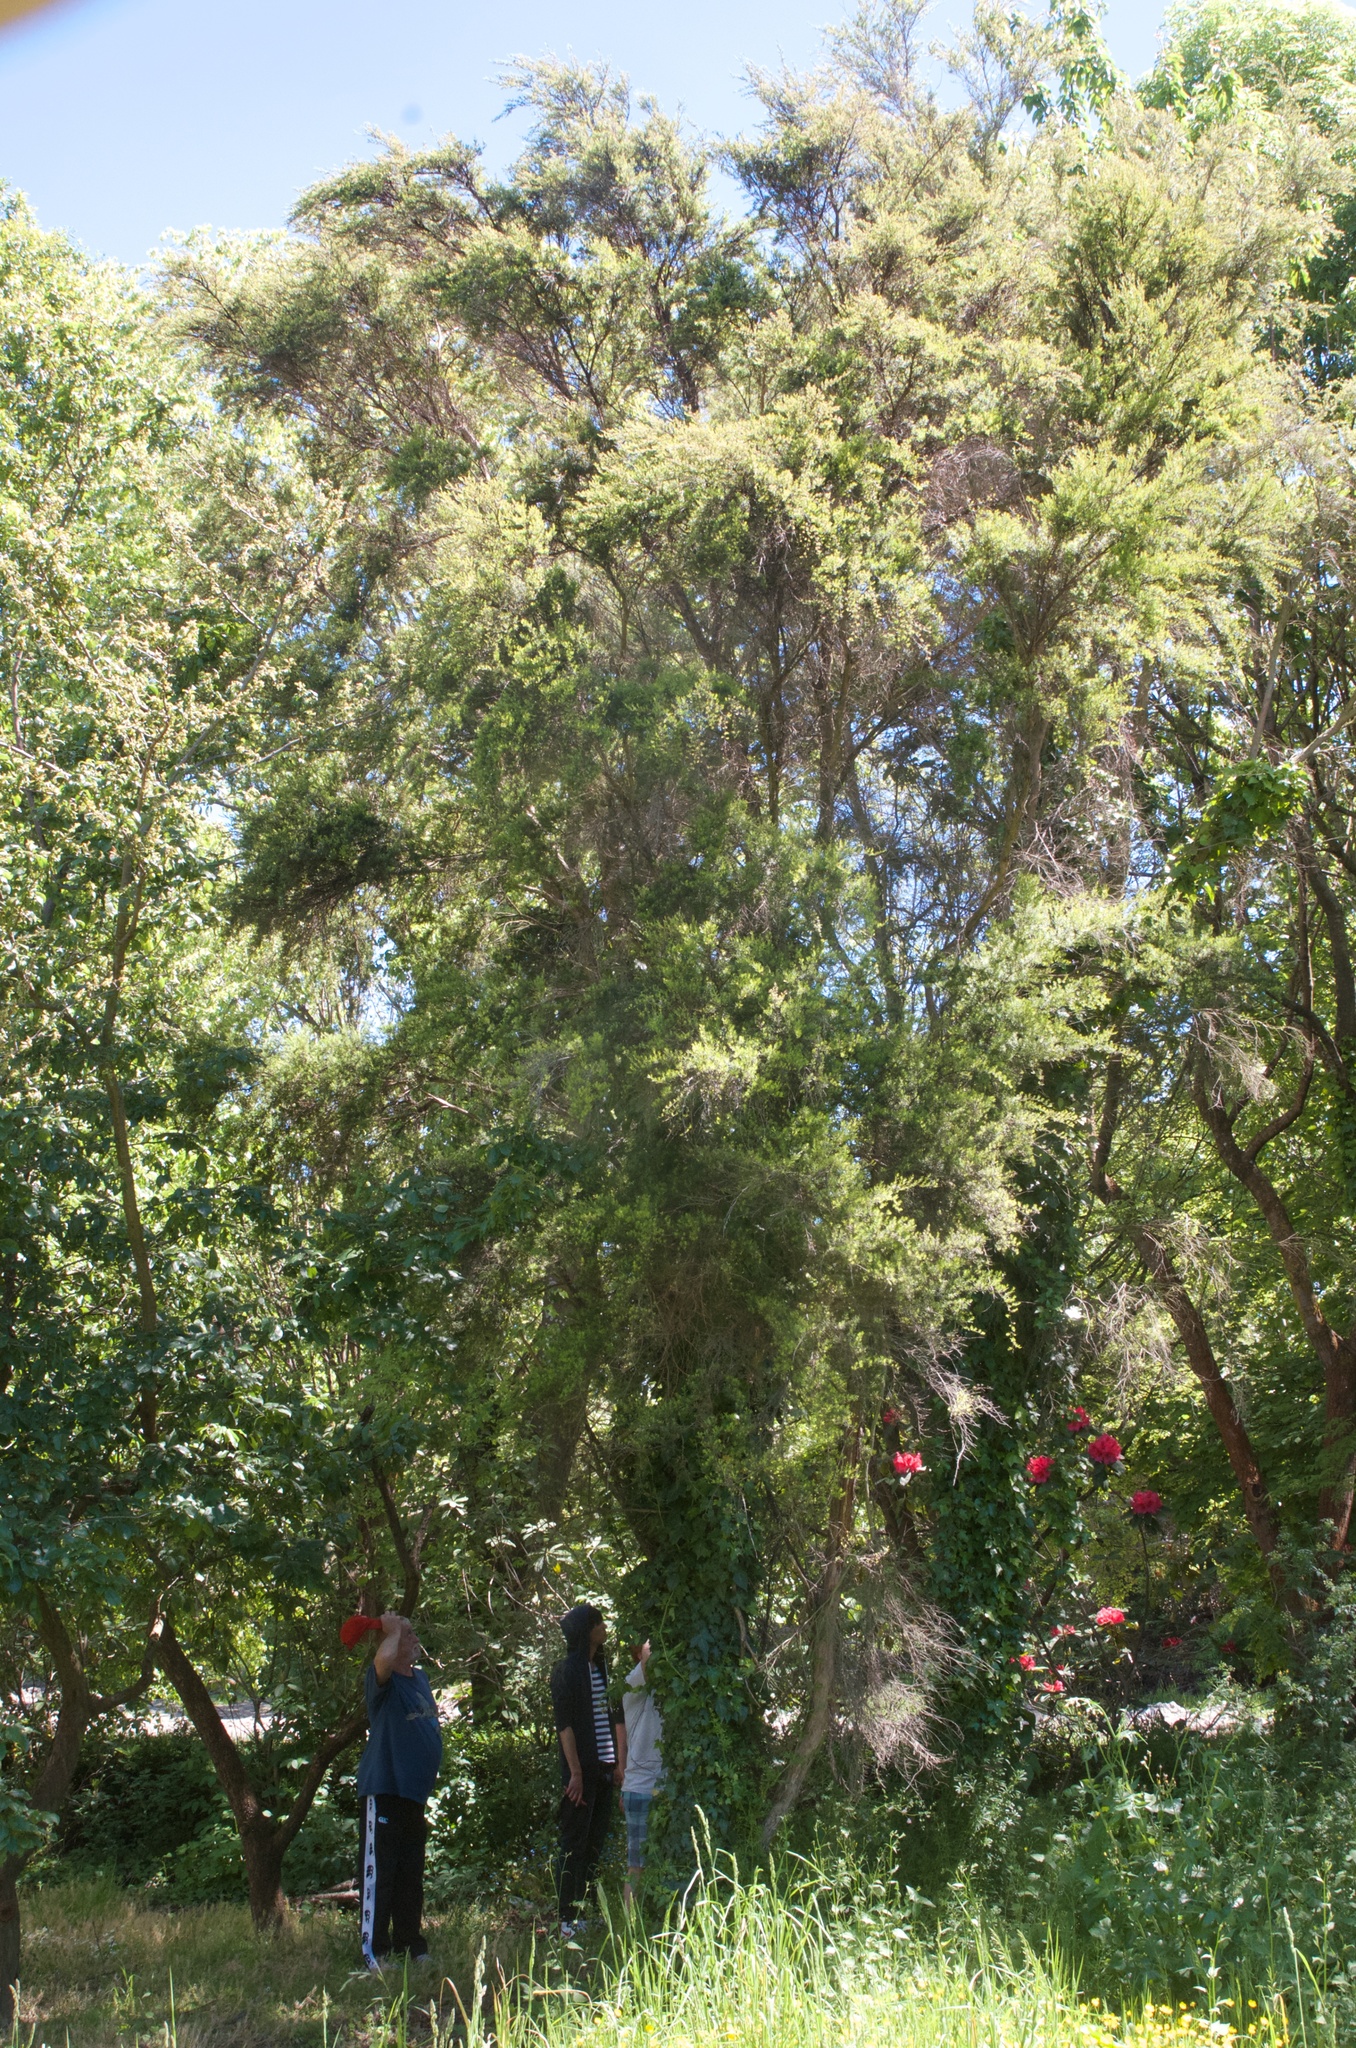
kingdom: Plantae
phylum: Tracheophyta
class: Magnoliopsida
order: Myrtales
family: Myrtaceae
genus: Kunzea
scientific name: Kunzea robusta
